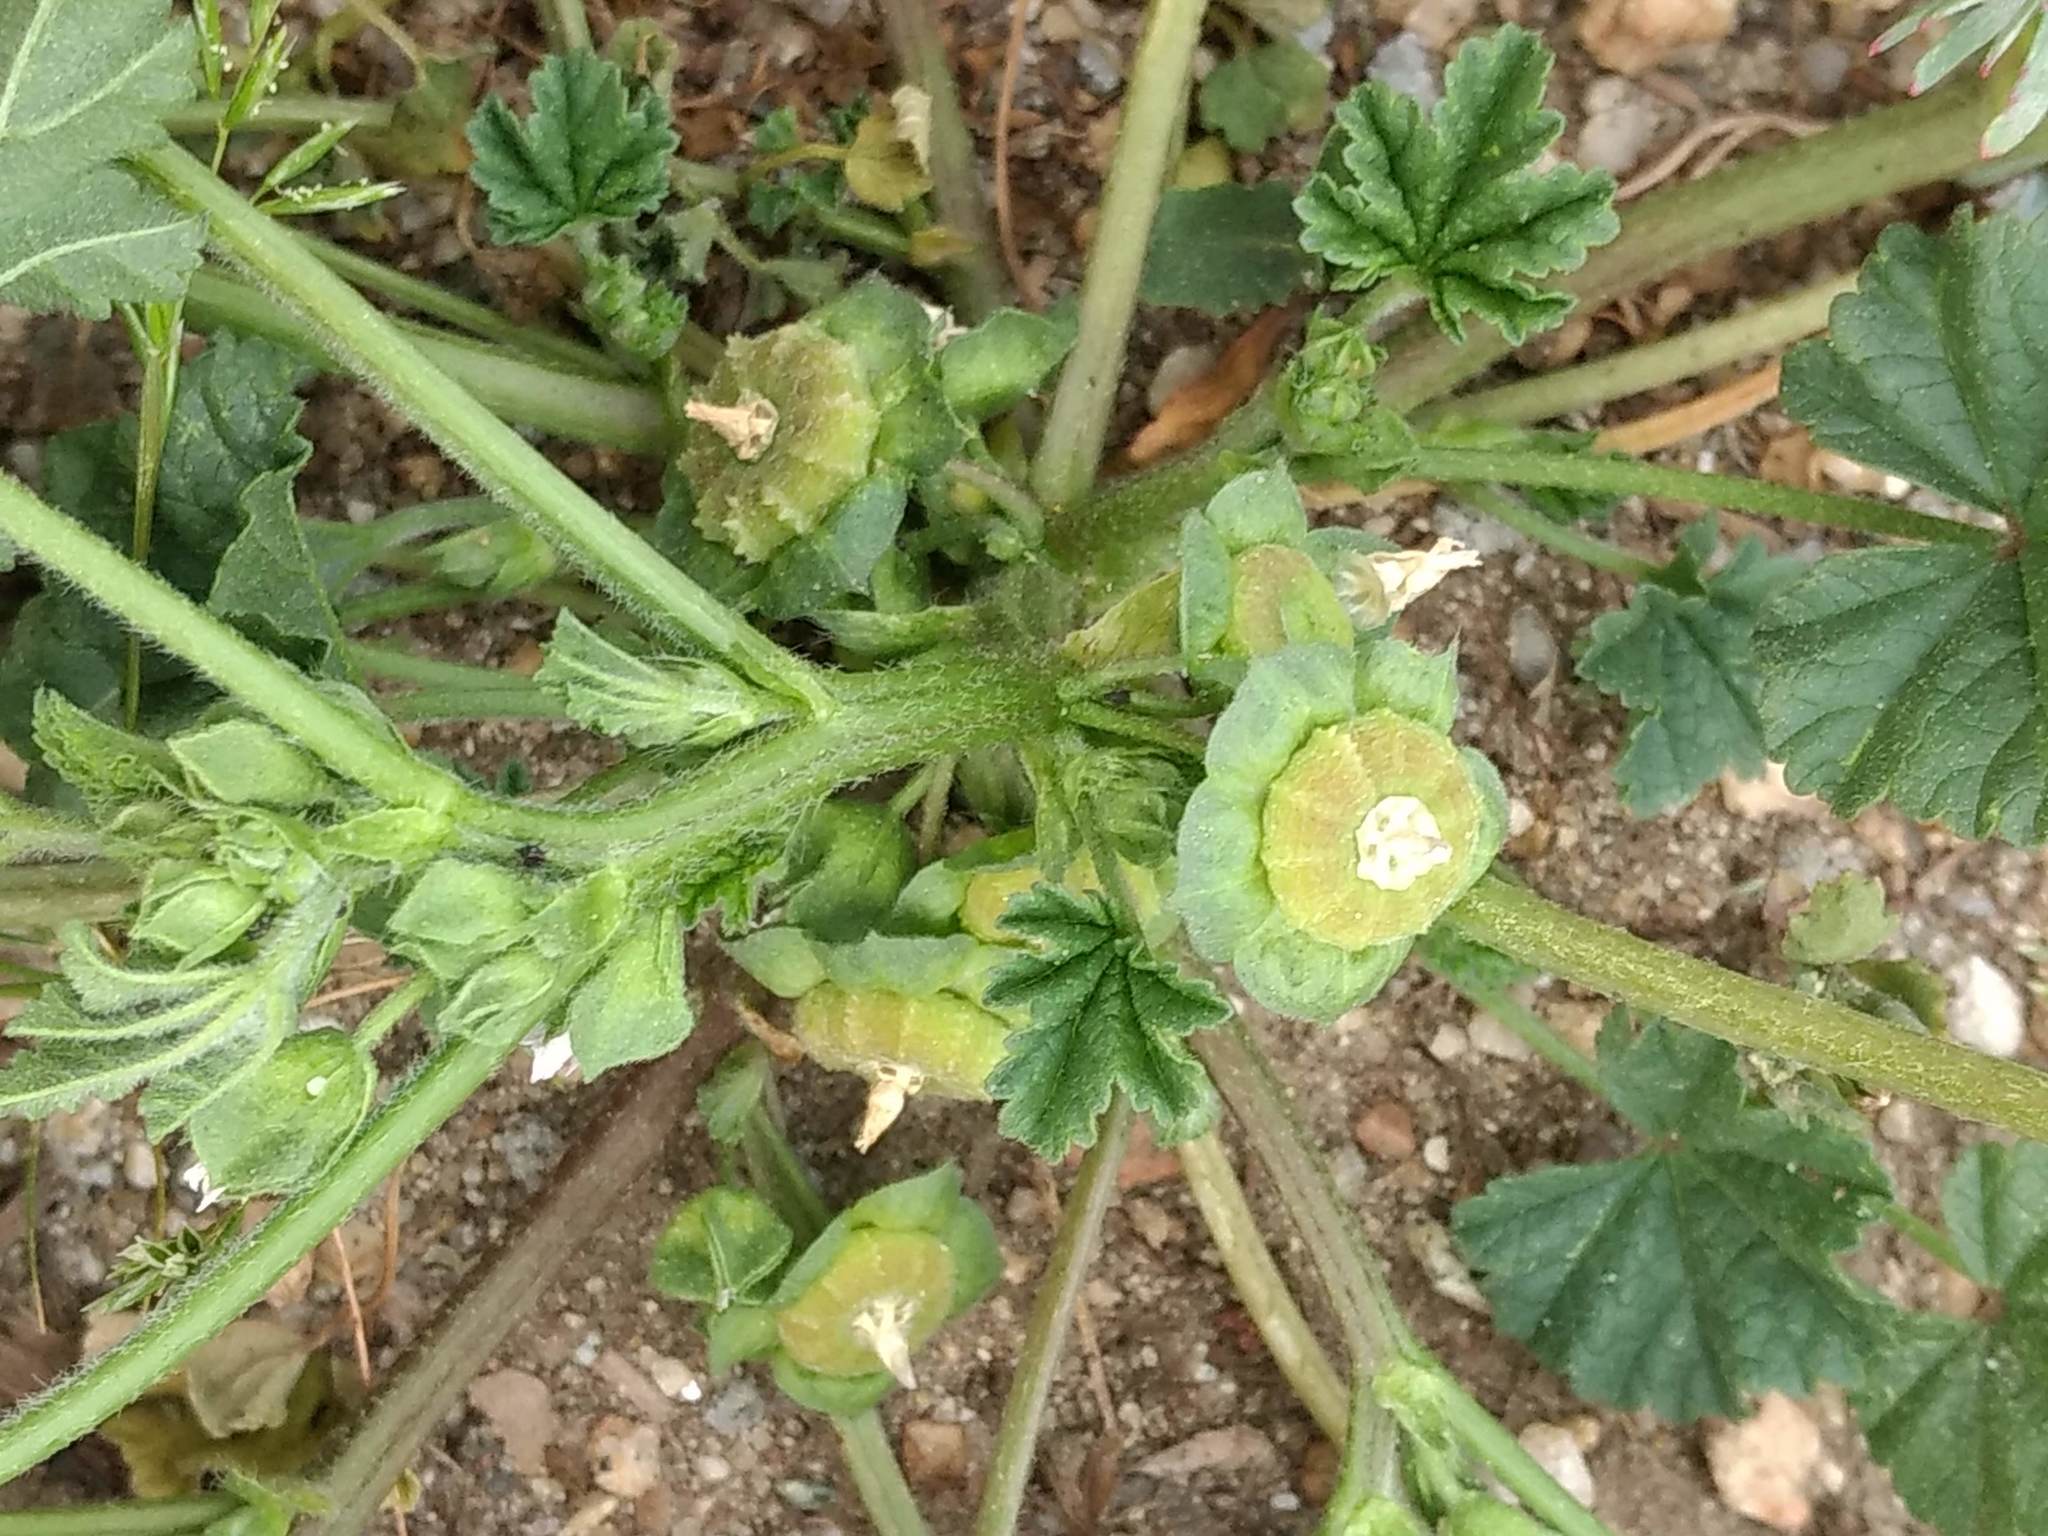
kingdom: Plantae
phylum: Tracheophyta
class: Magnoliopsida
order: Malvales
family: Malvaceae
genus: Malva
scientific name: Malva parviflora
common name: Least mallow
